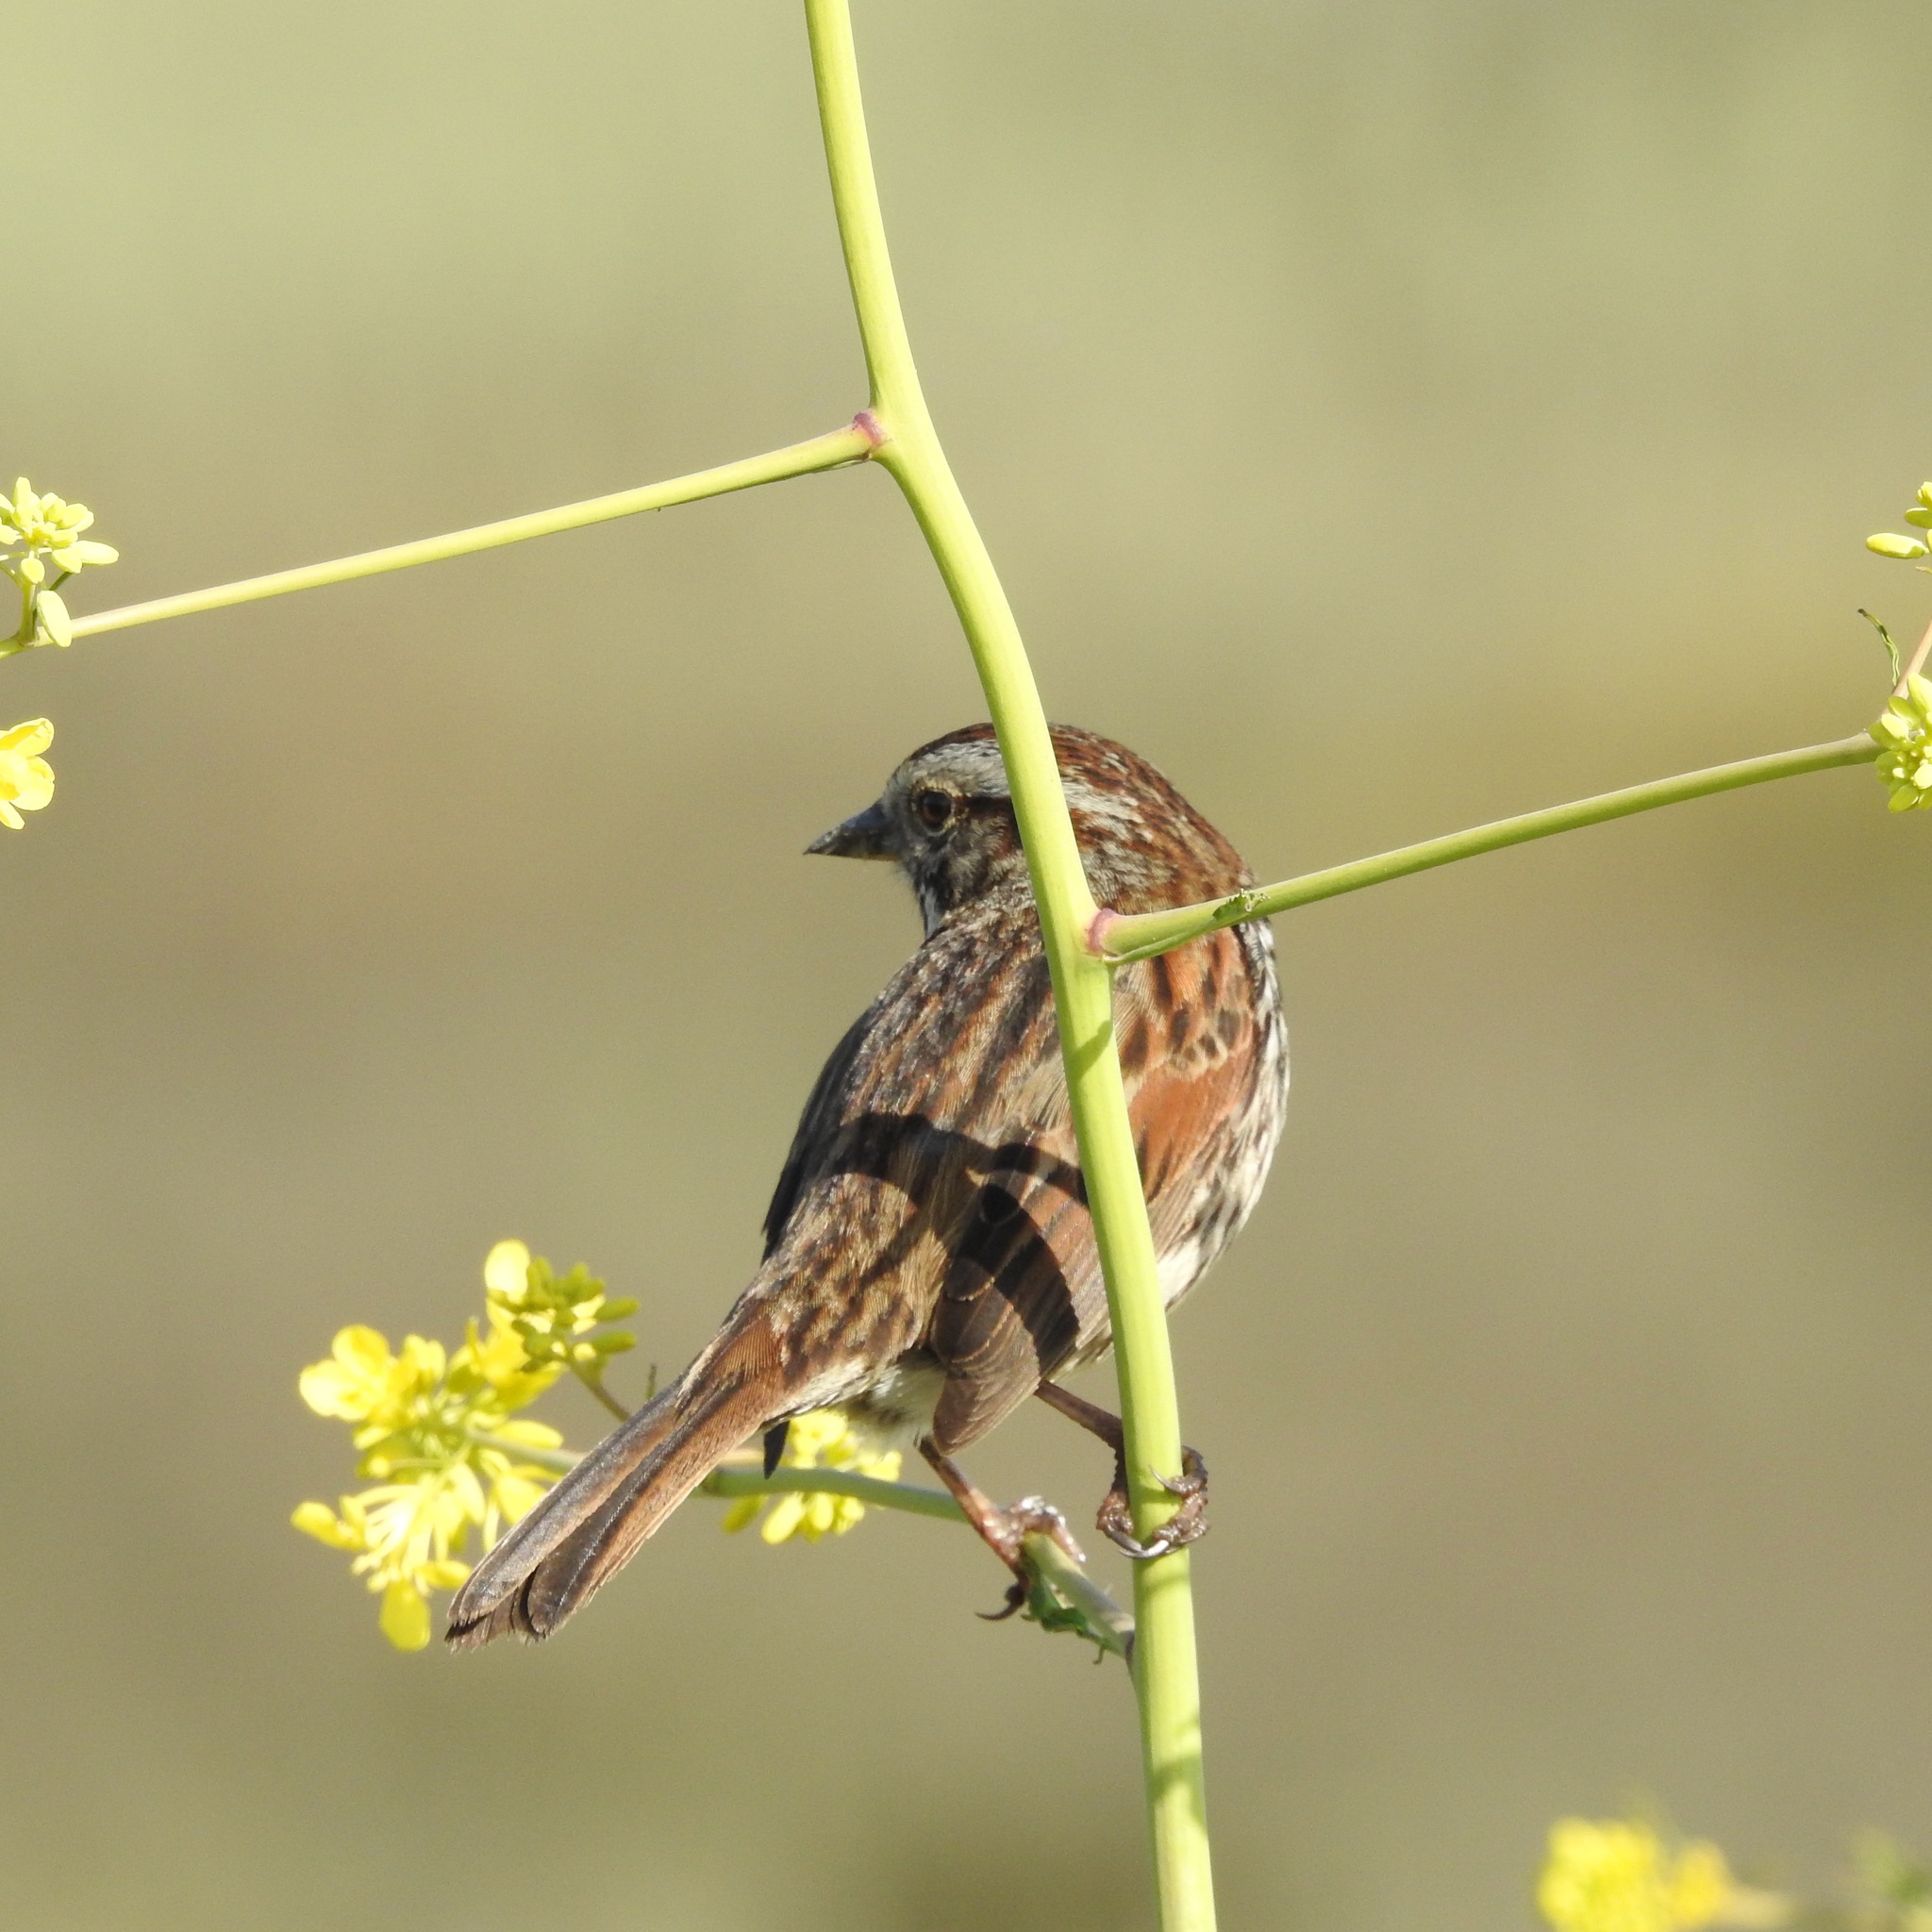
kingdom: Animalia
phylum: Chordata
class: Aves
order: Passeriformes
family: Passerellidae
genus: Melospiza
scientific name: Melospiza melodia
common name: Song sparrow
